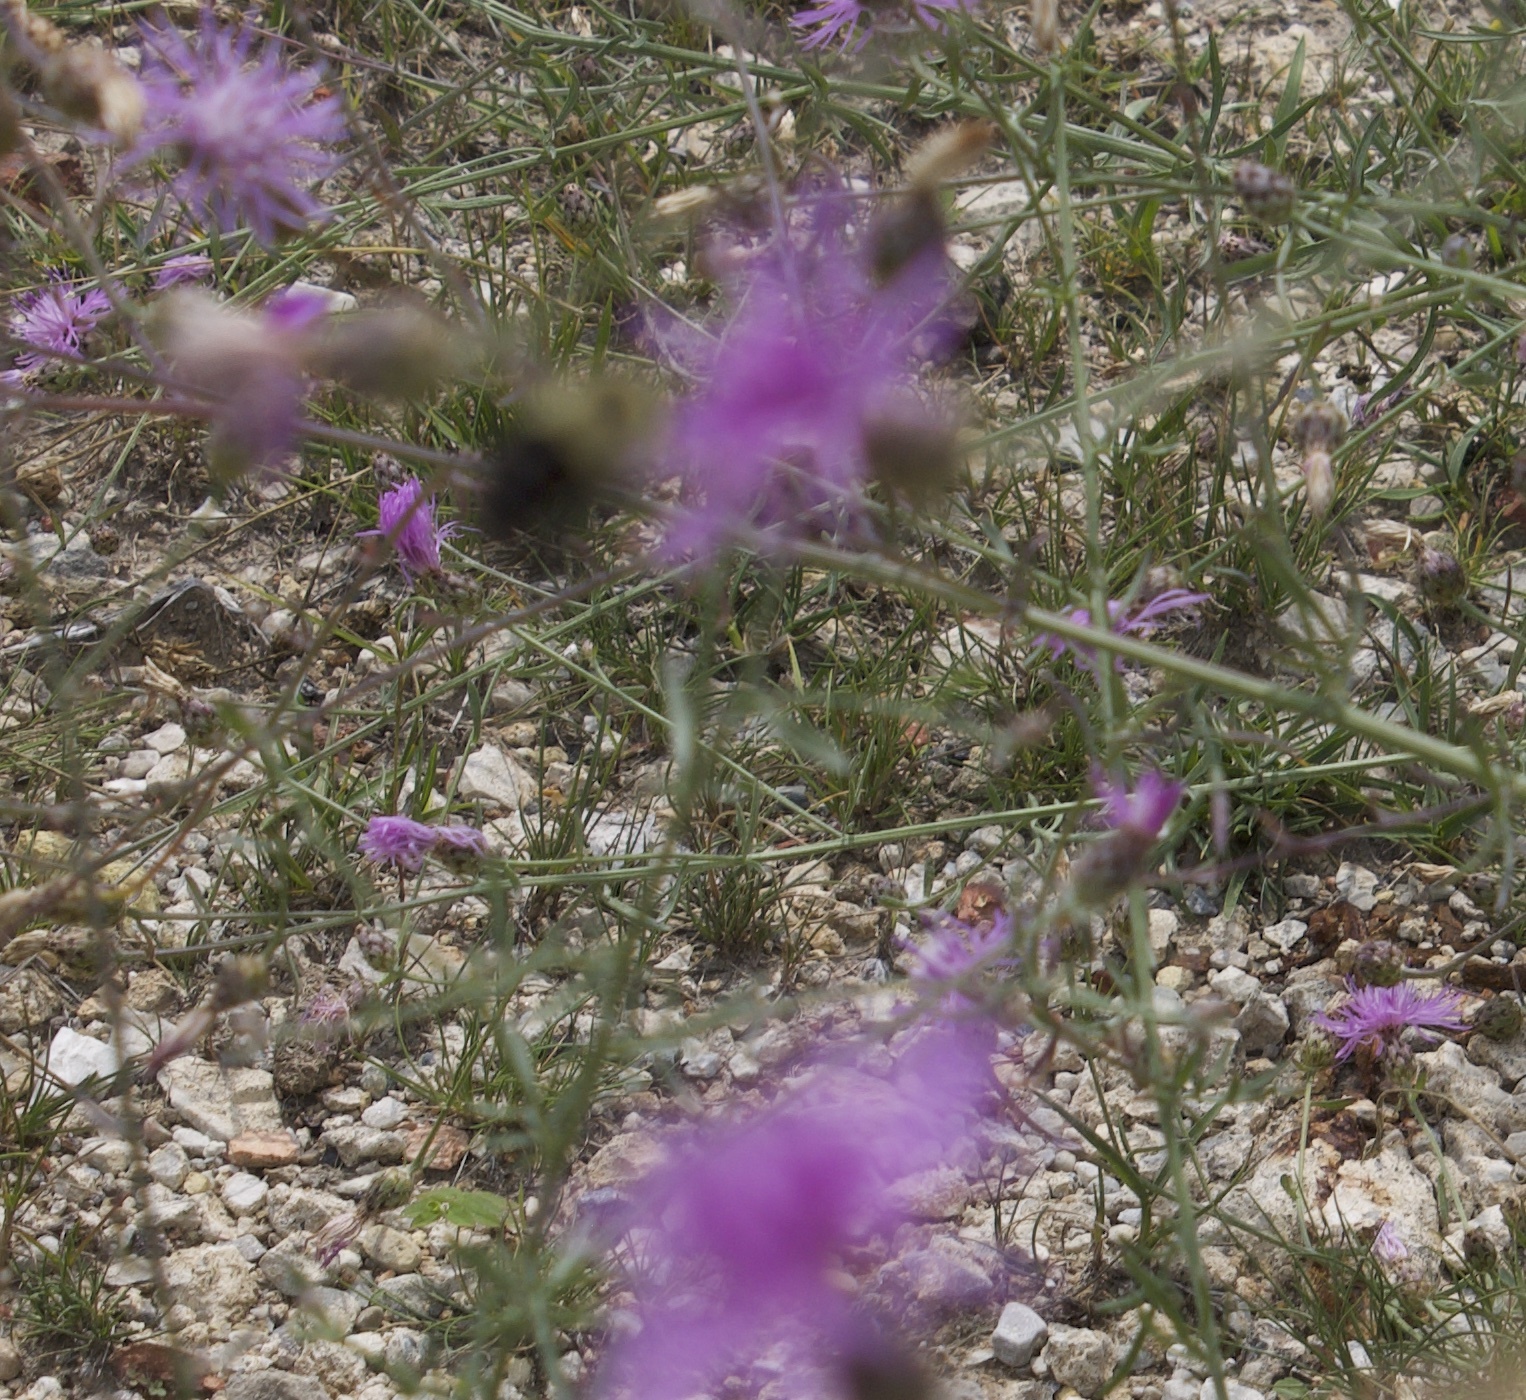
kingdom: Animalia
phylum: Arthropoda
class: Insecta
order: Hymenoptera
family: Apidae
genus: Bombus
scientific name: Bombus impatiens
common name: Common eastern bumble bee
